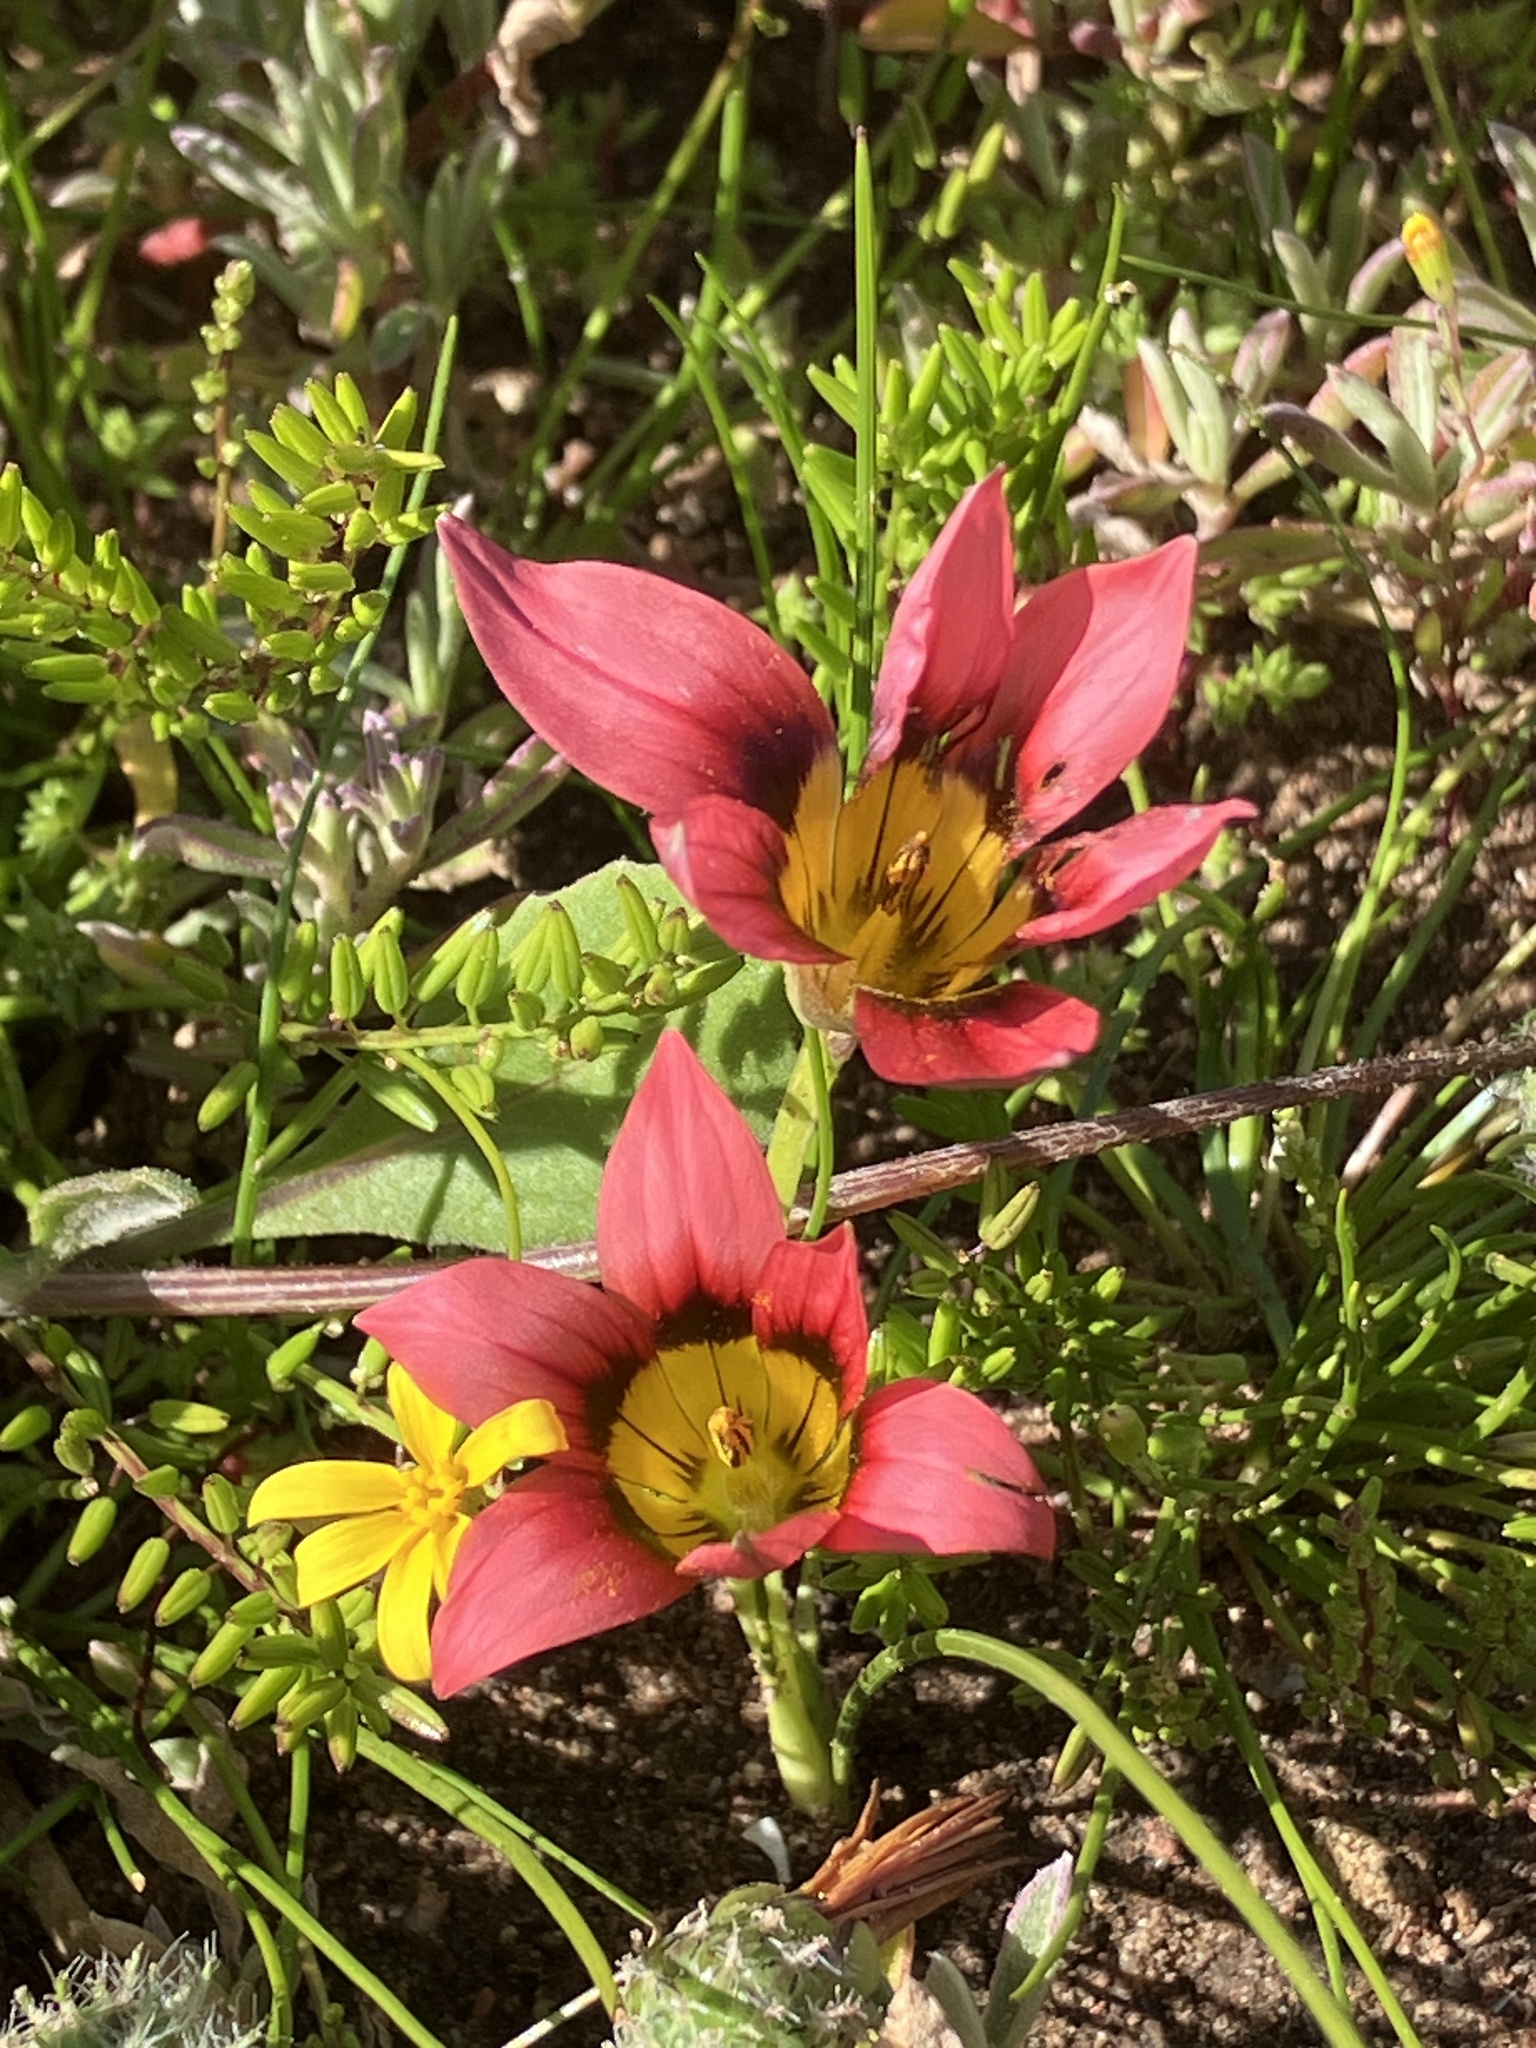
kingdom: Plantae
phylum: Tracheophyta
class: Liliopsida
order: Asparagales
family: Iridaceae
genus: Romulea
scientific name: Romulea eximia
